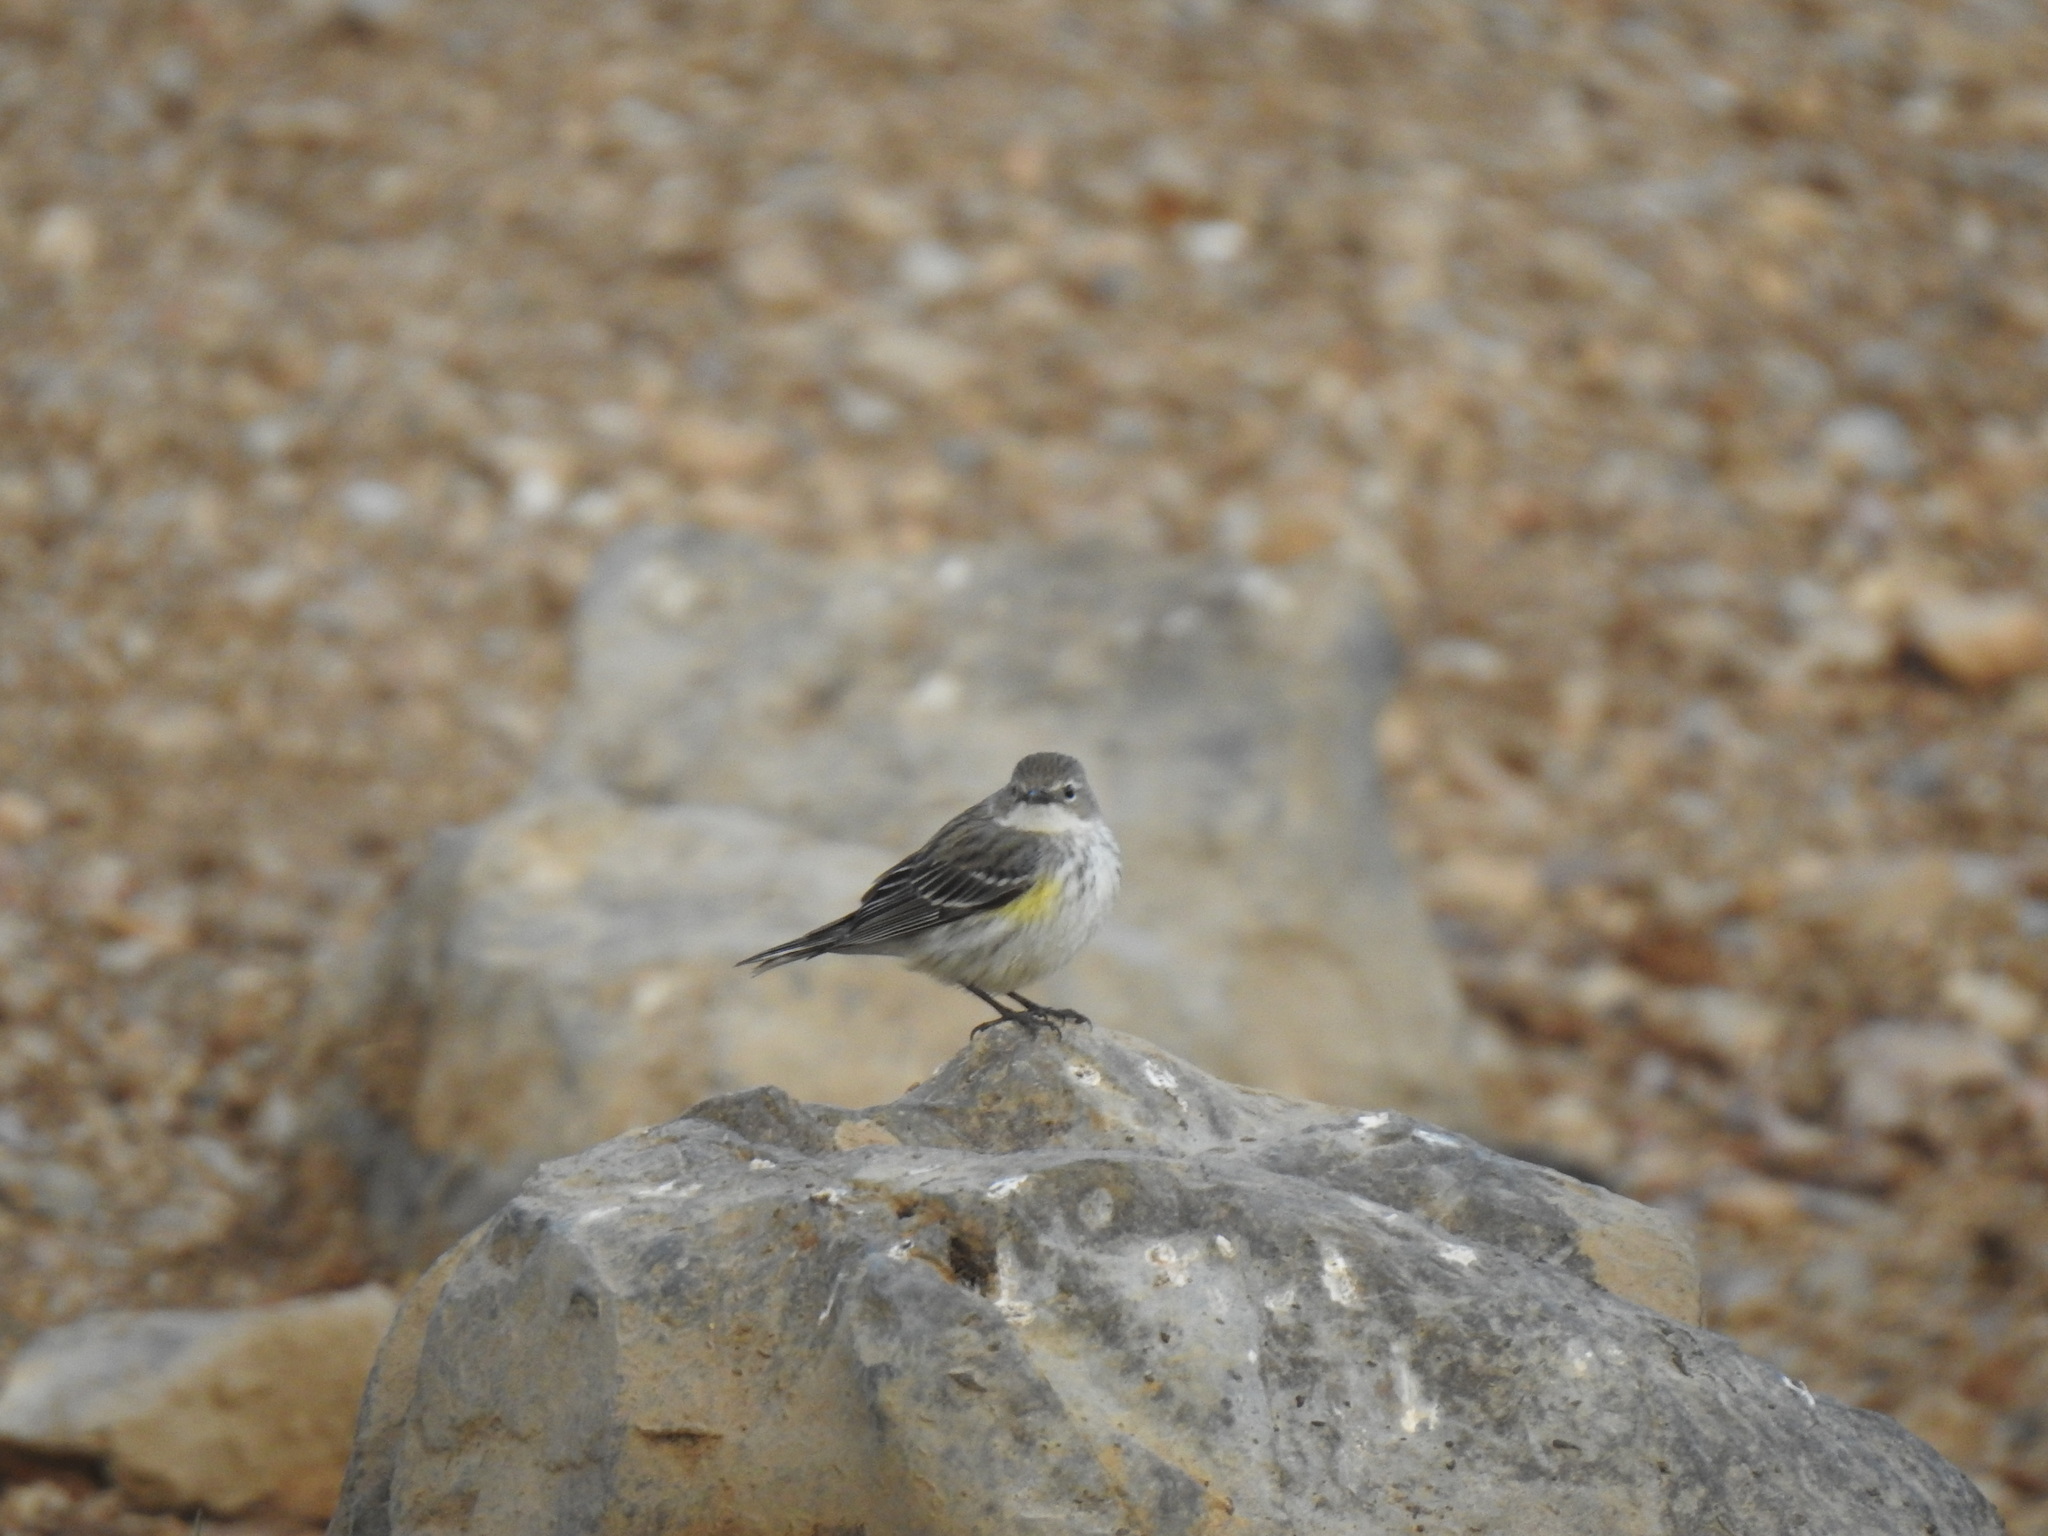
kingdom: Animalia
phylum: Chordata
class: Aves
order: Passeriformes
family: Parulidae
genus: Setophaga
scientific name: Setophaga coronata
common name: Myrtle warbler
